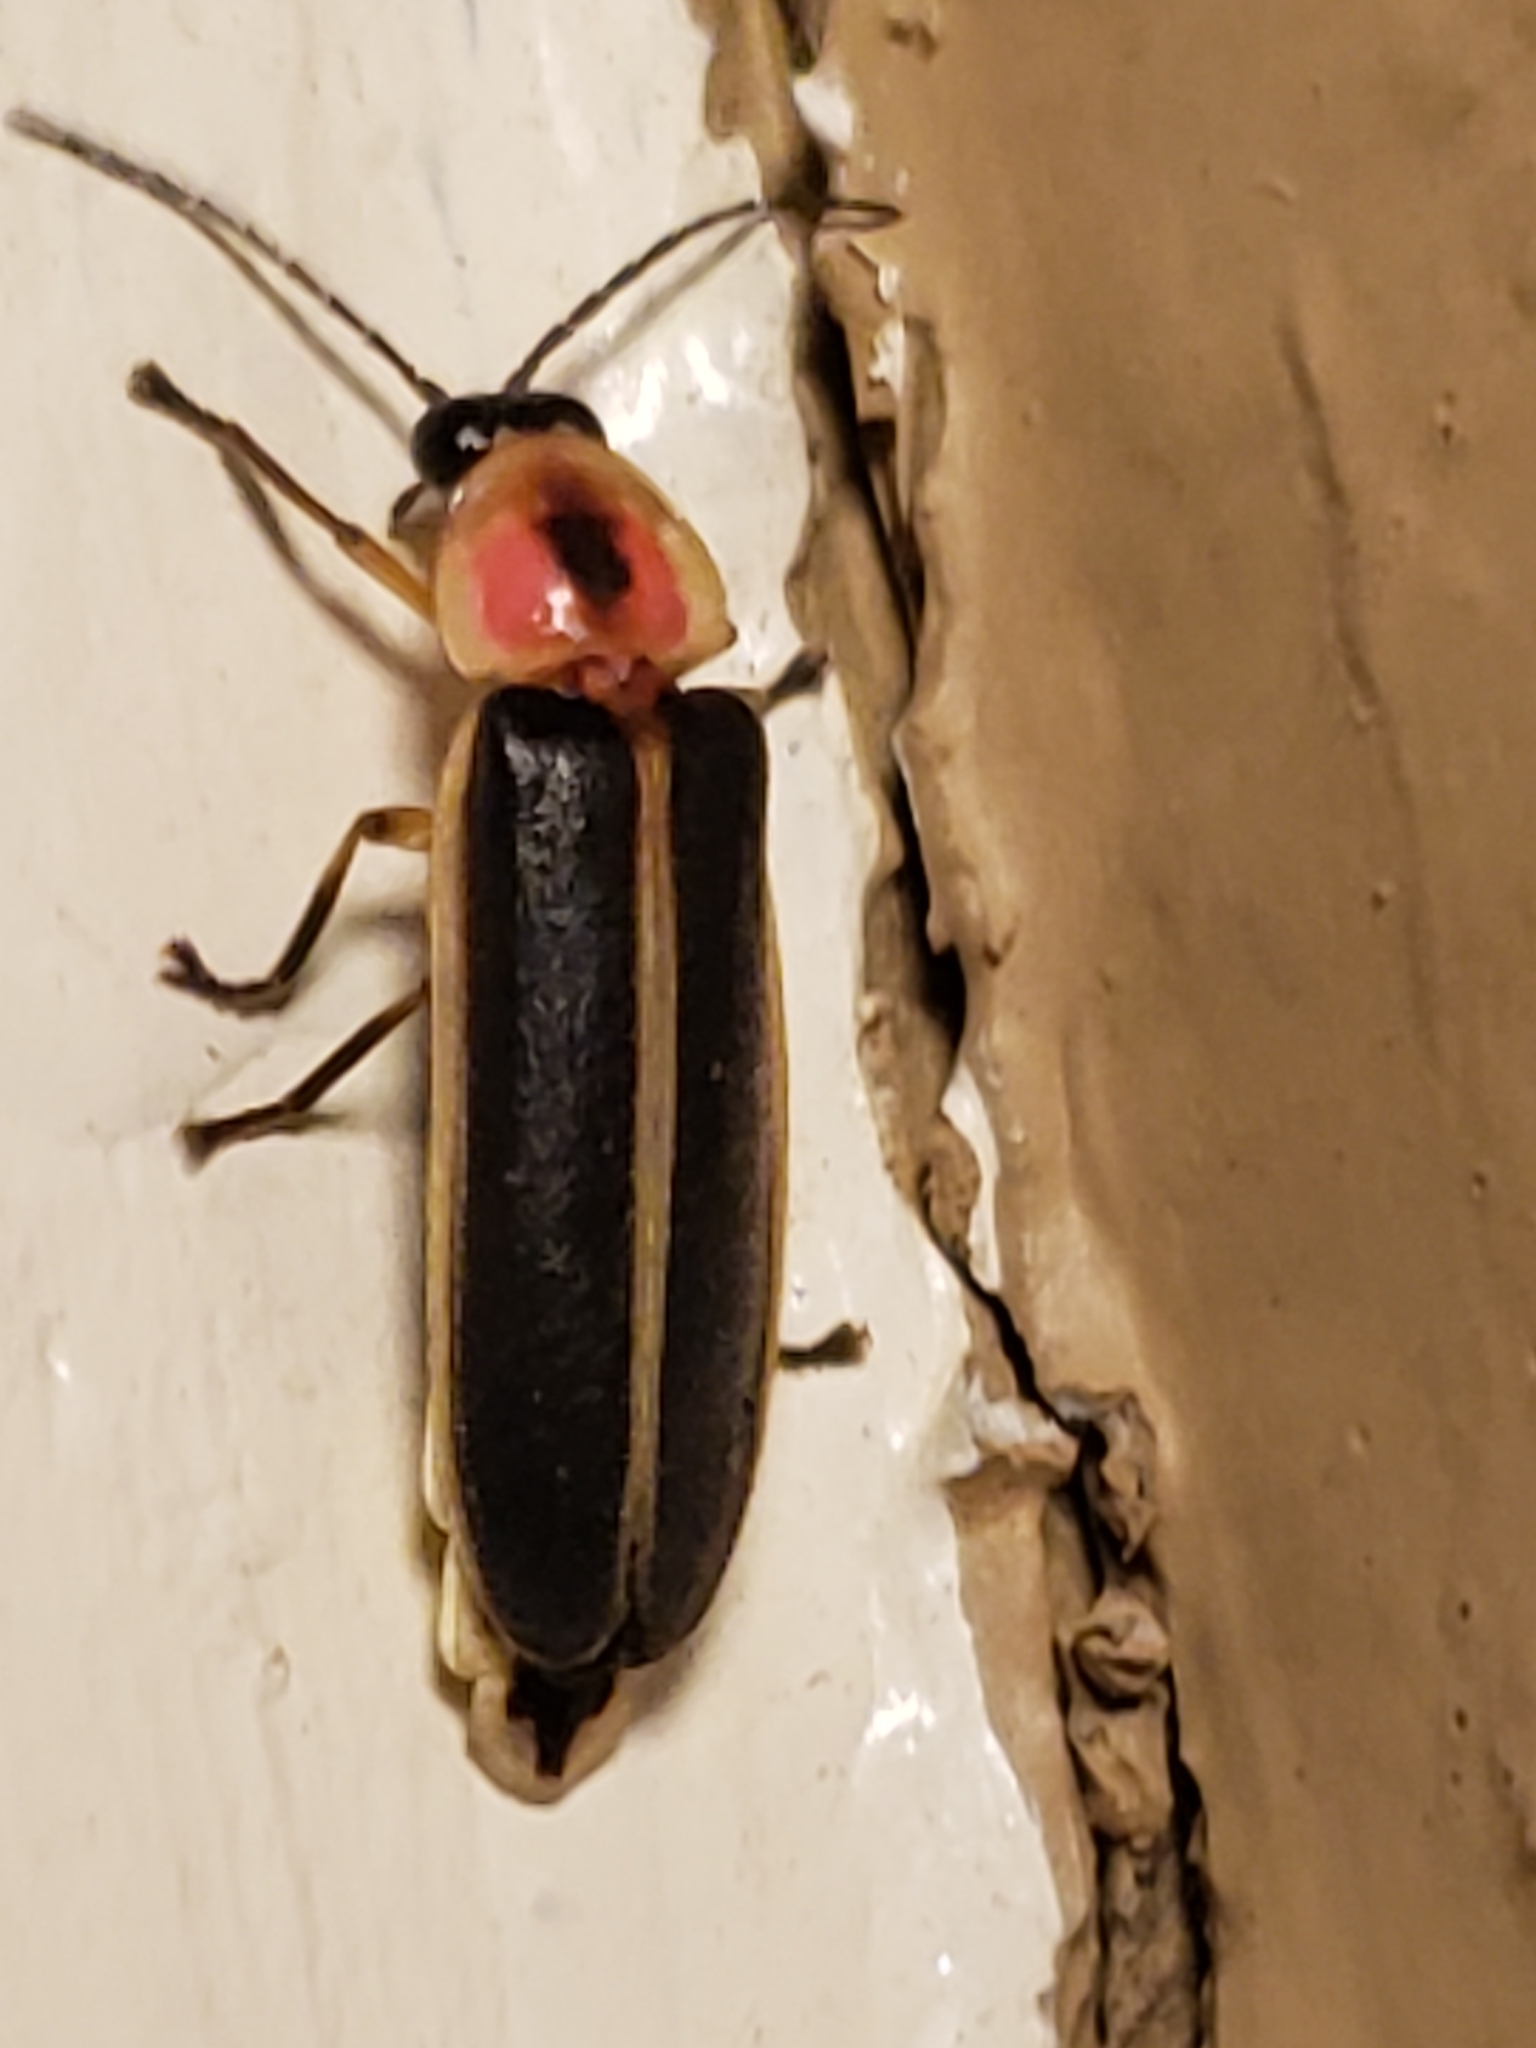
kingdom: Animalia
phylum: Arthropoda
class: Insecta
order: Coleoptera
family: Lampyridae
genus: Photinus
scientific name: Photinus
